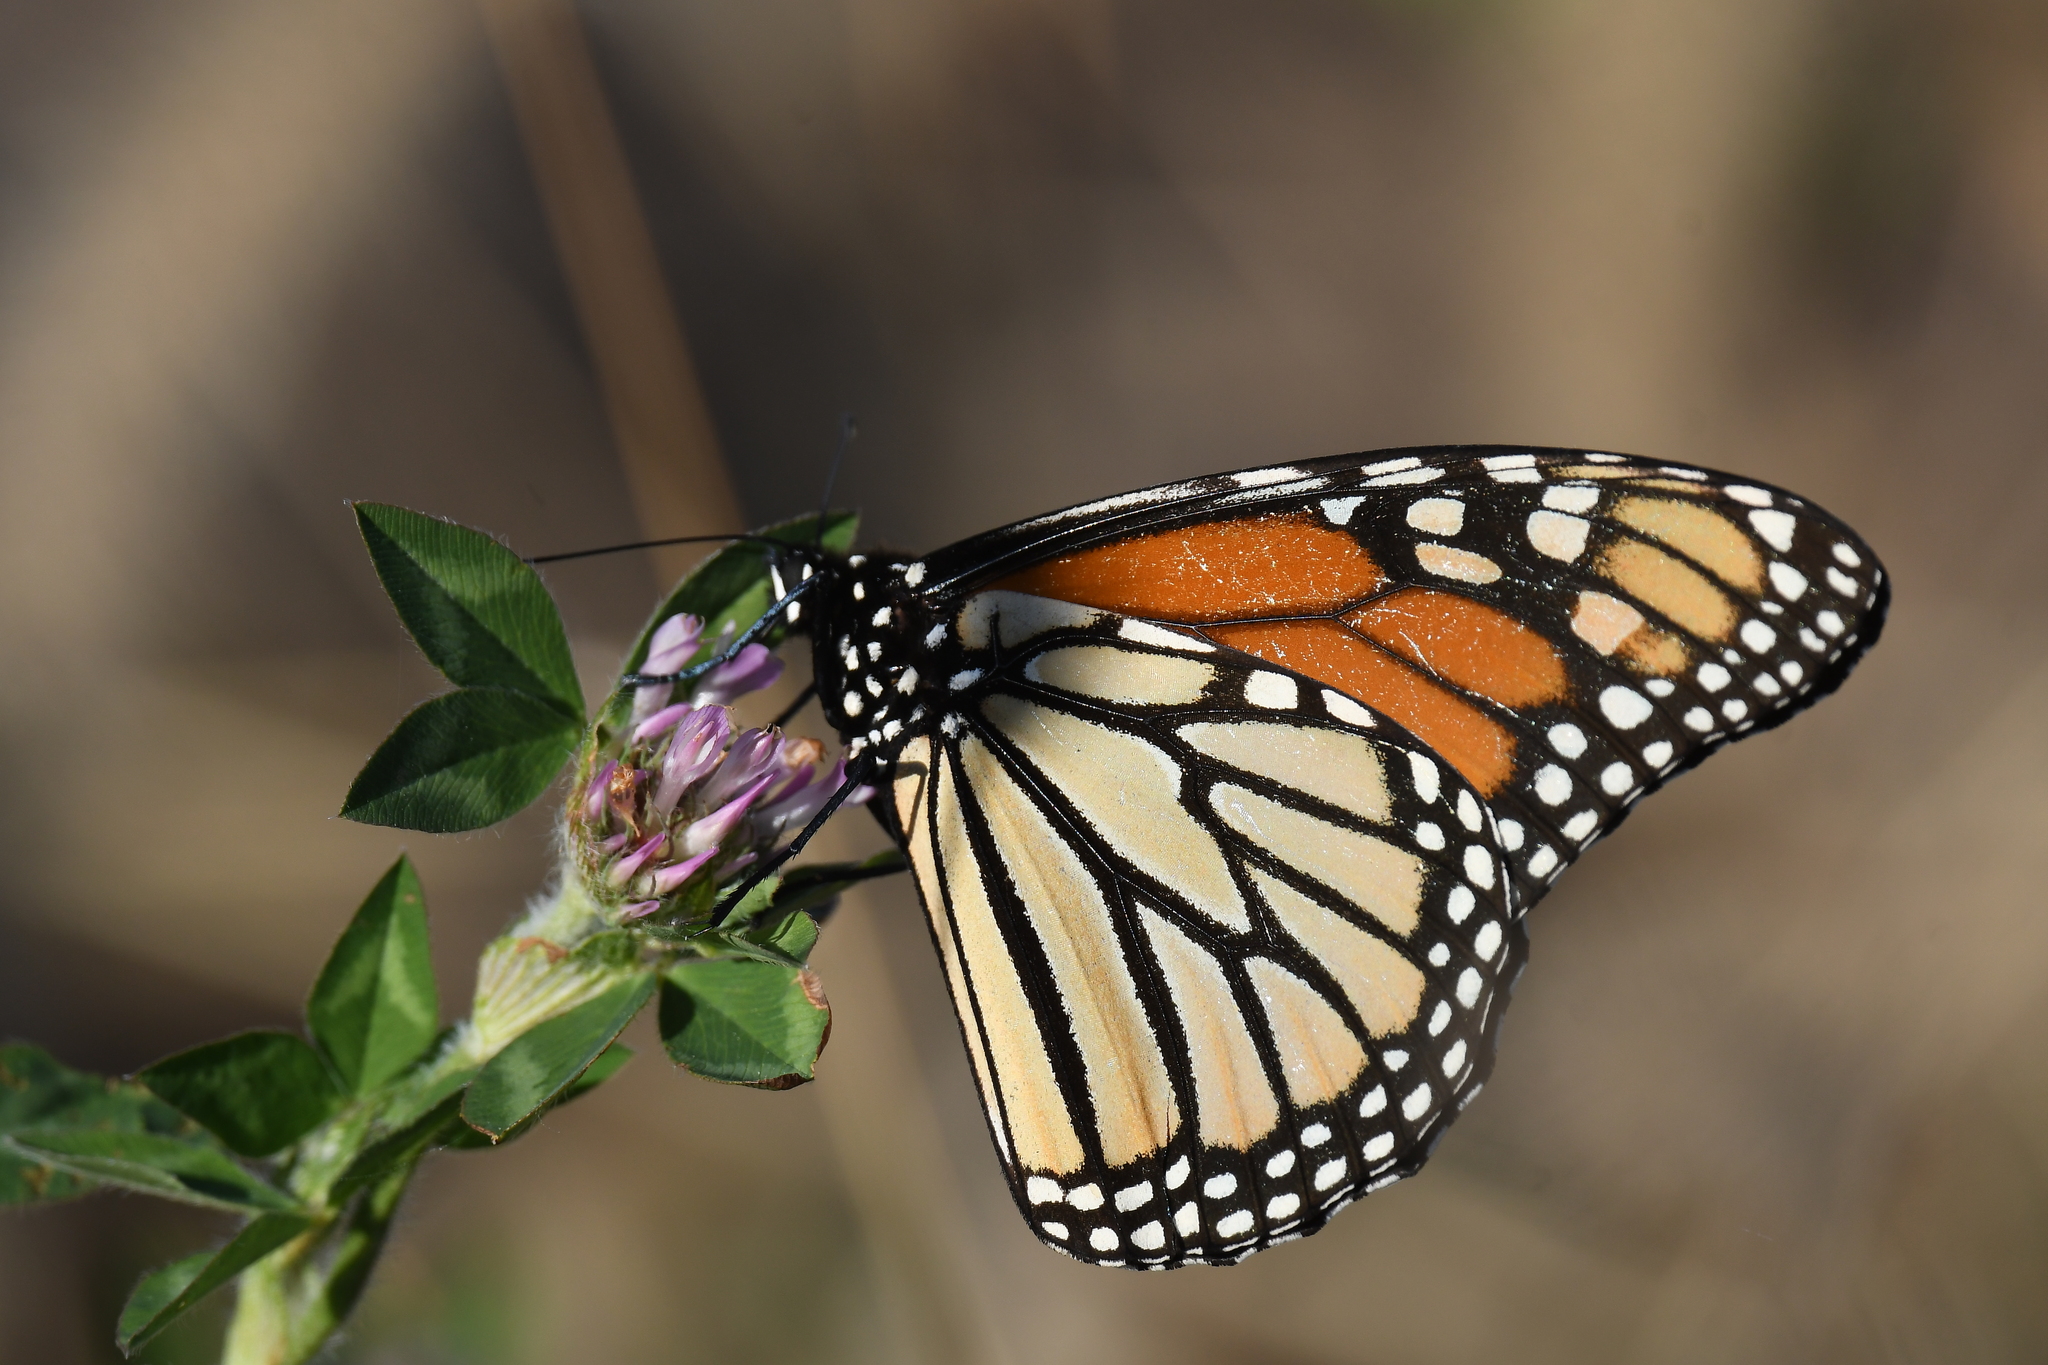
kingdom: Animalia
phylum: Arthropoda
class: Insecta
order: Lepidoptera
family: Nymphalidae
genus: Danaus
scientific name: Danaus plexippus
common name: Monarch
